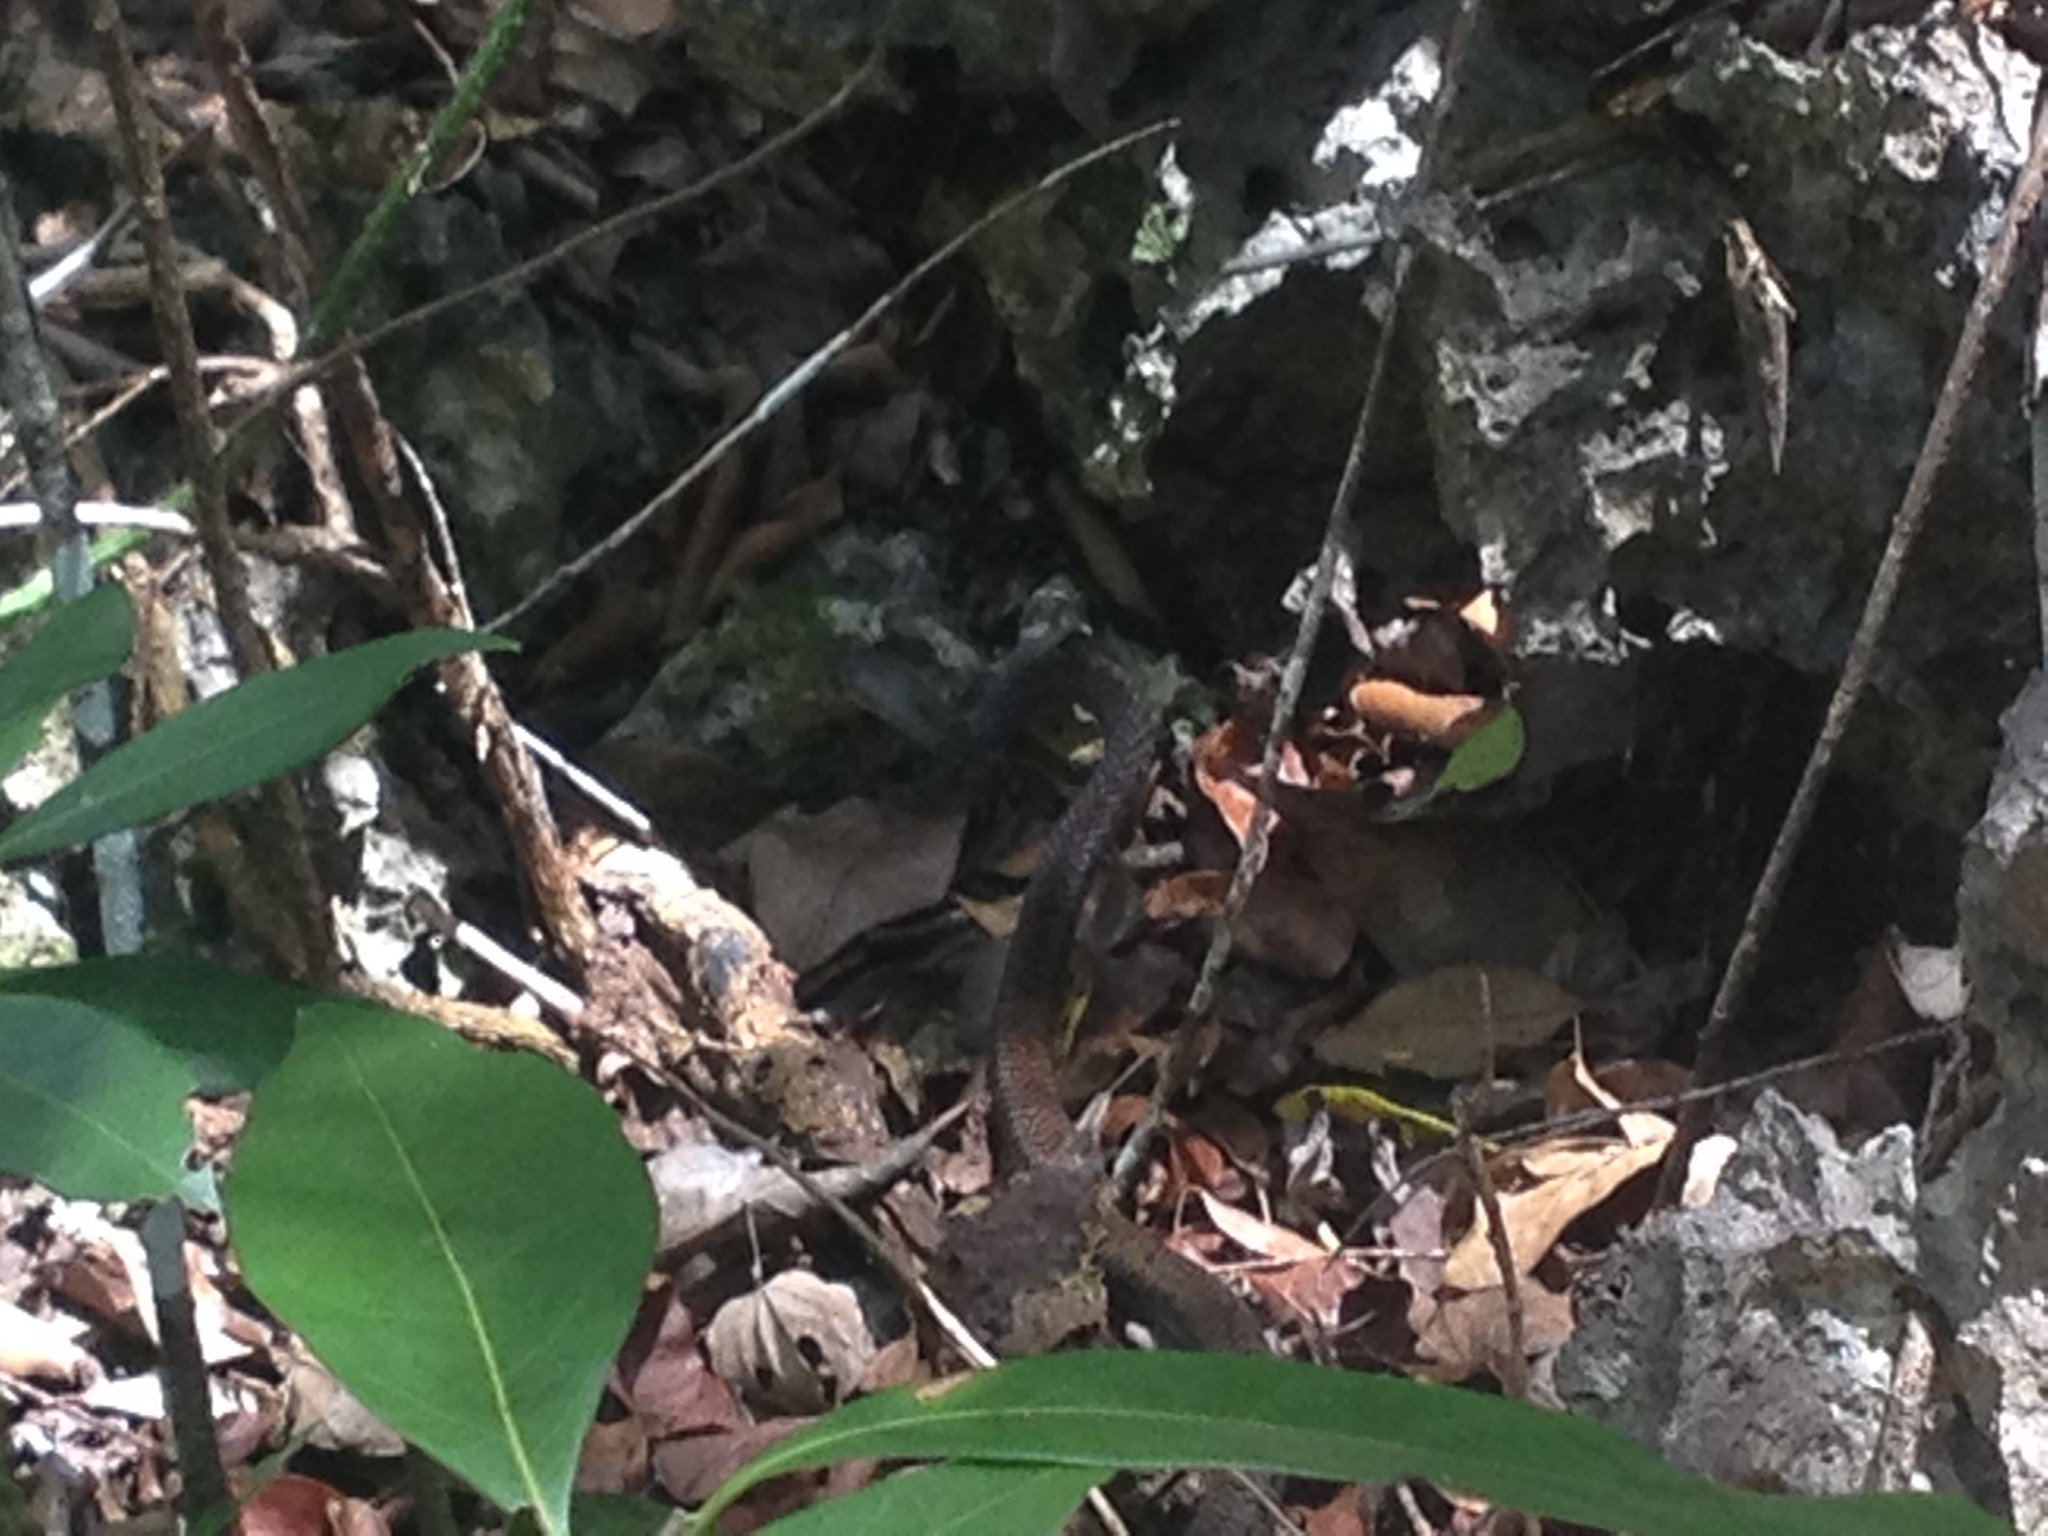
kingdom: Animalia
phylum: Chordata
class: Squamata
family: Colubridae
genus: Cubophis
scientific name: Cubophis caymanus
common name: Black snake
